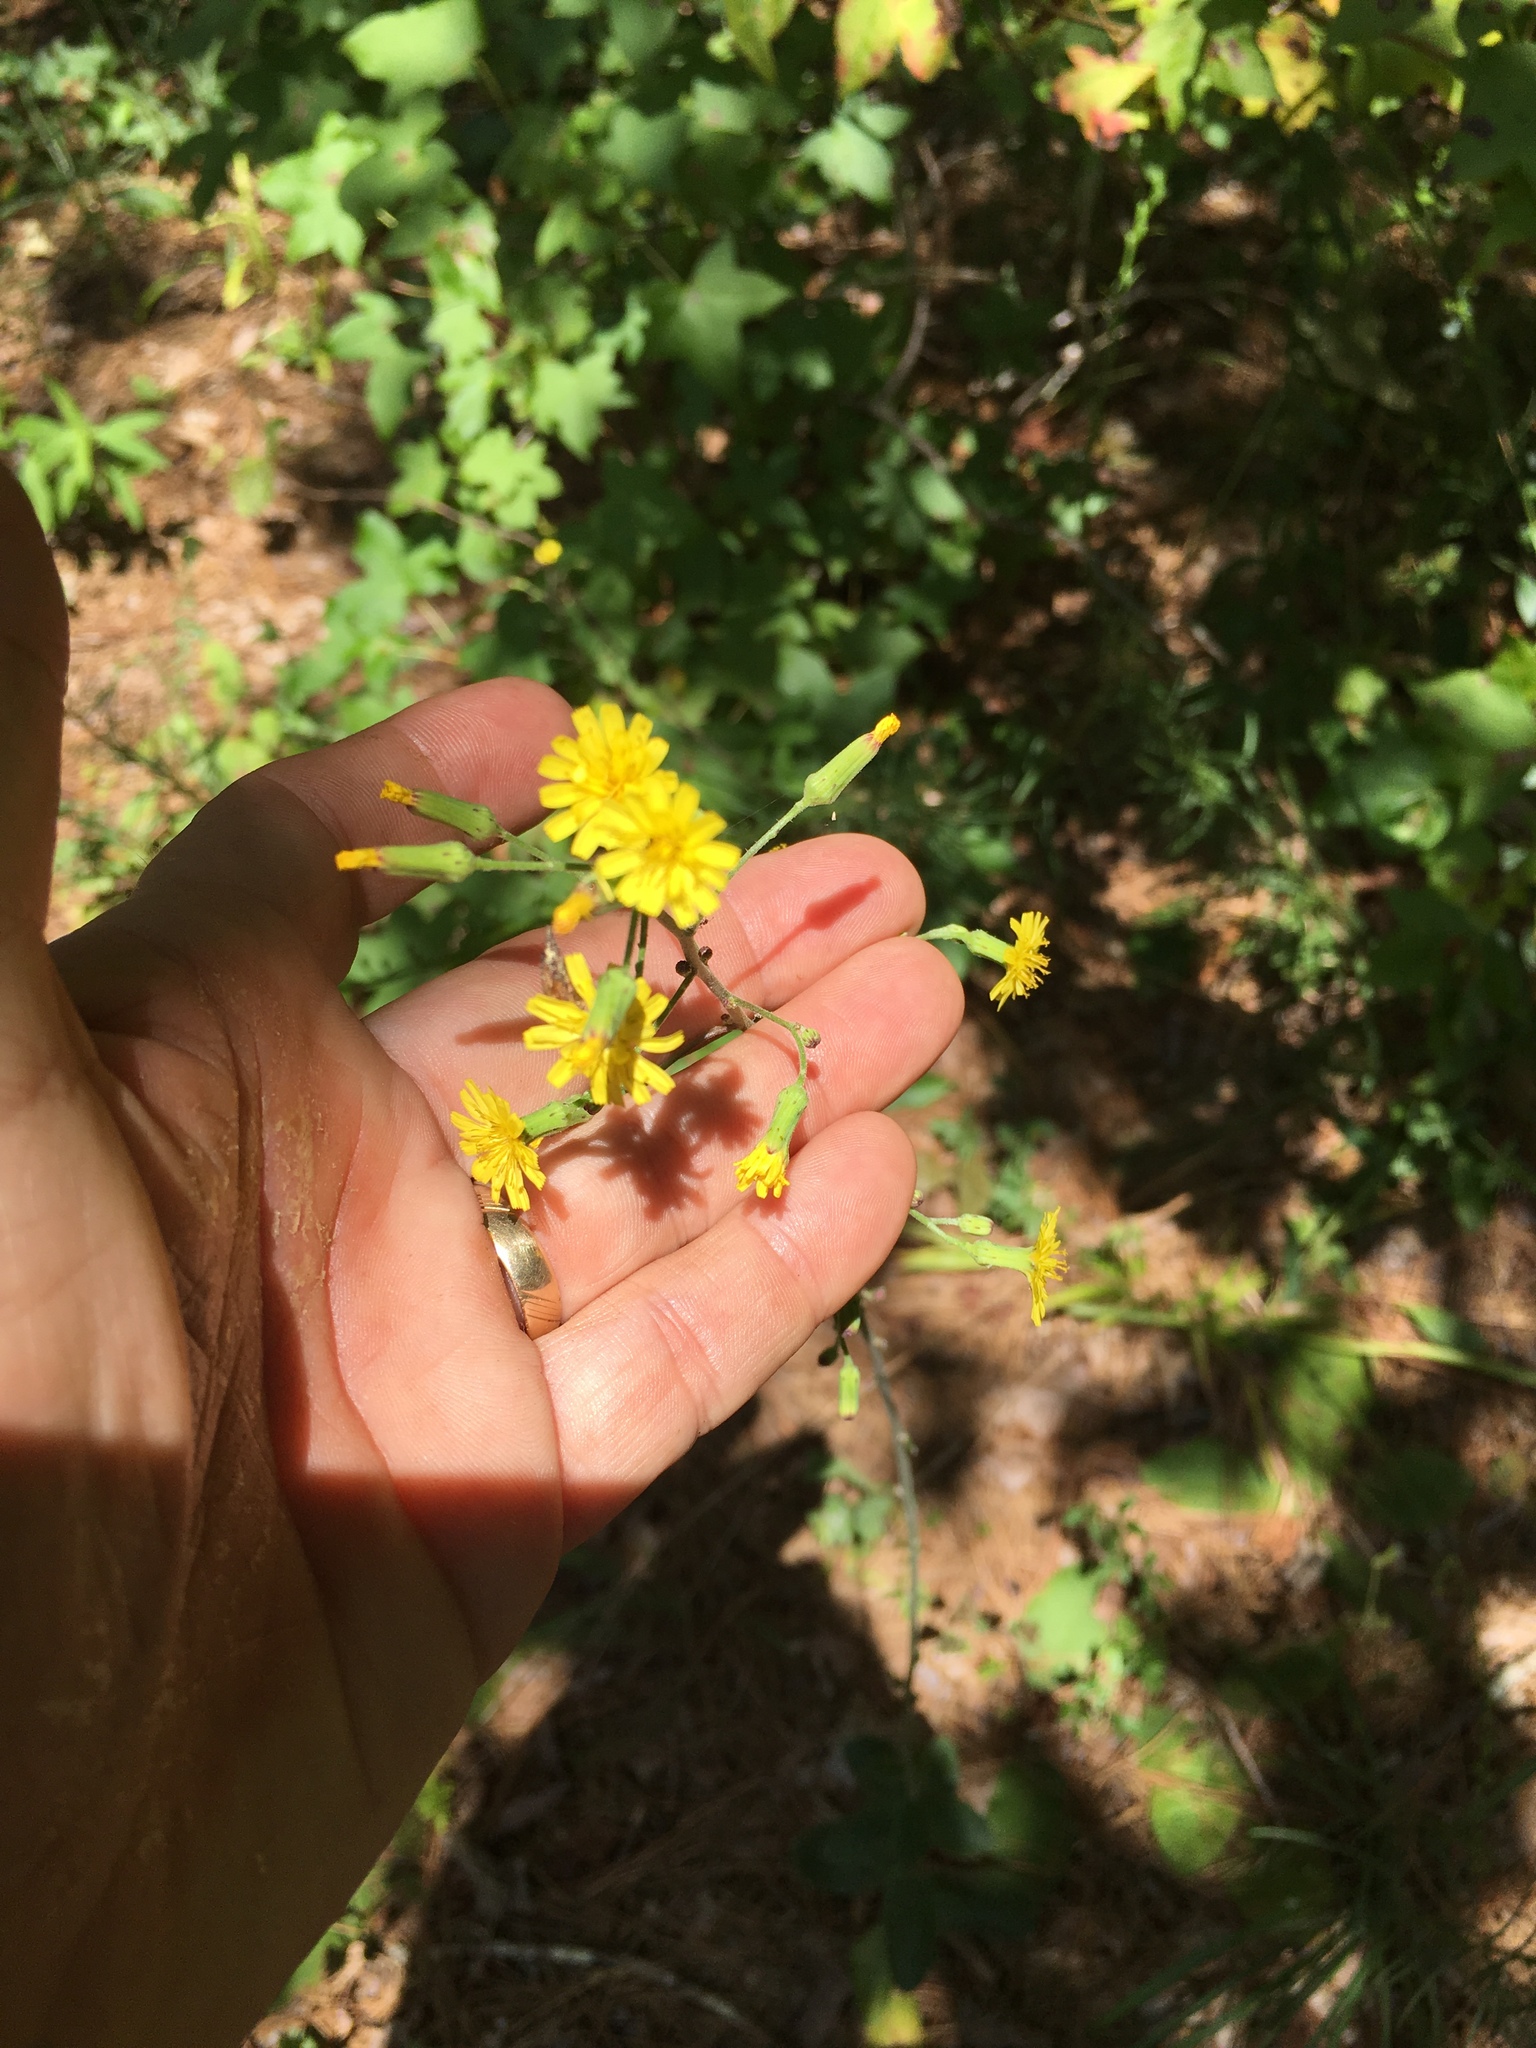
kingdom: Plantae
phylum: Tracheophyta
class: Magnoliopsida
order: Asterales
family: Asteraceae
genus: Hieracium
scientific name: Hieracium gronovii
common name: Beaked hawkweed
